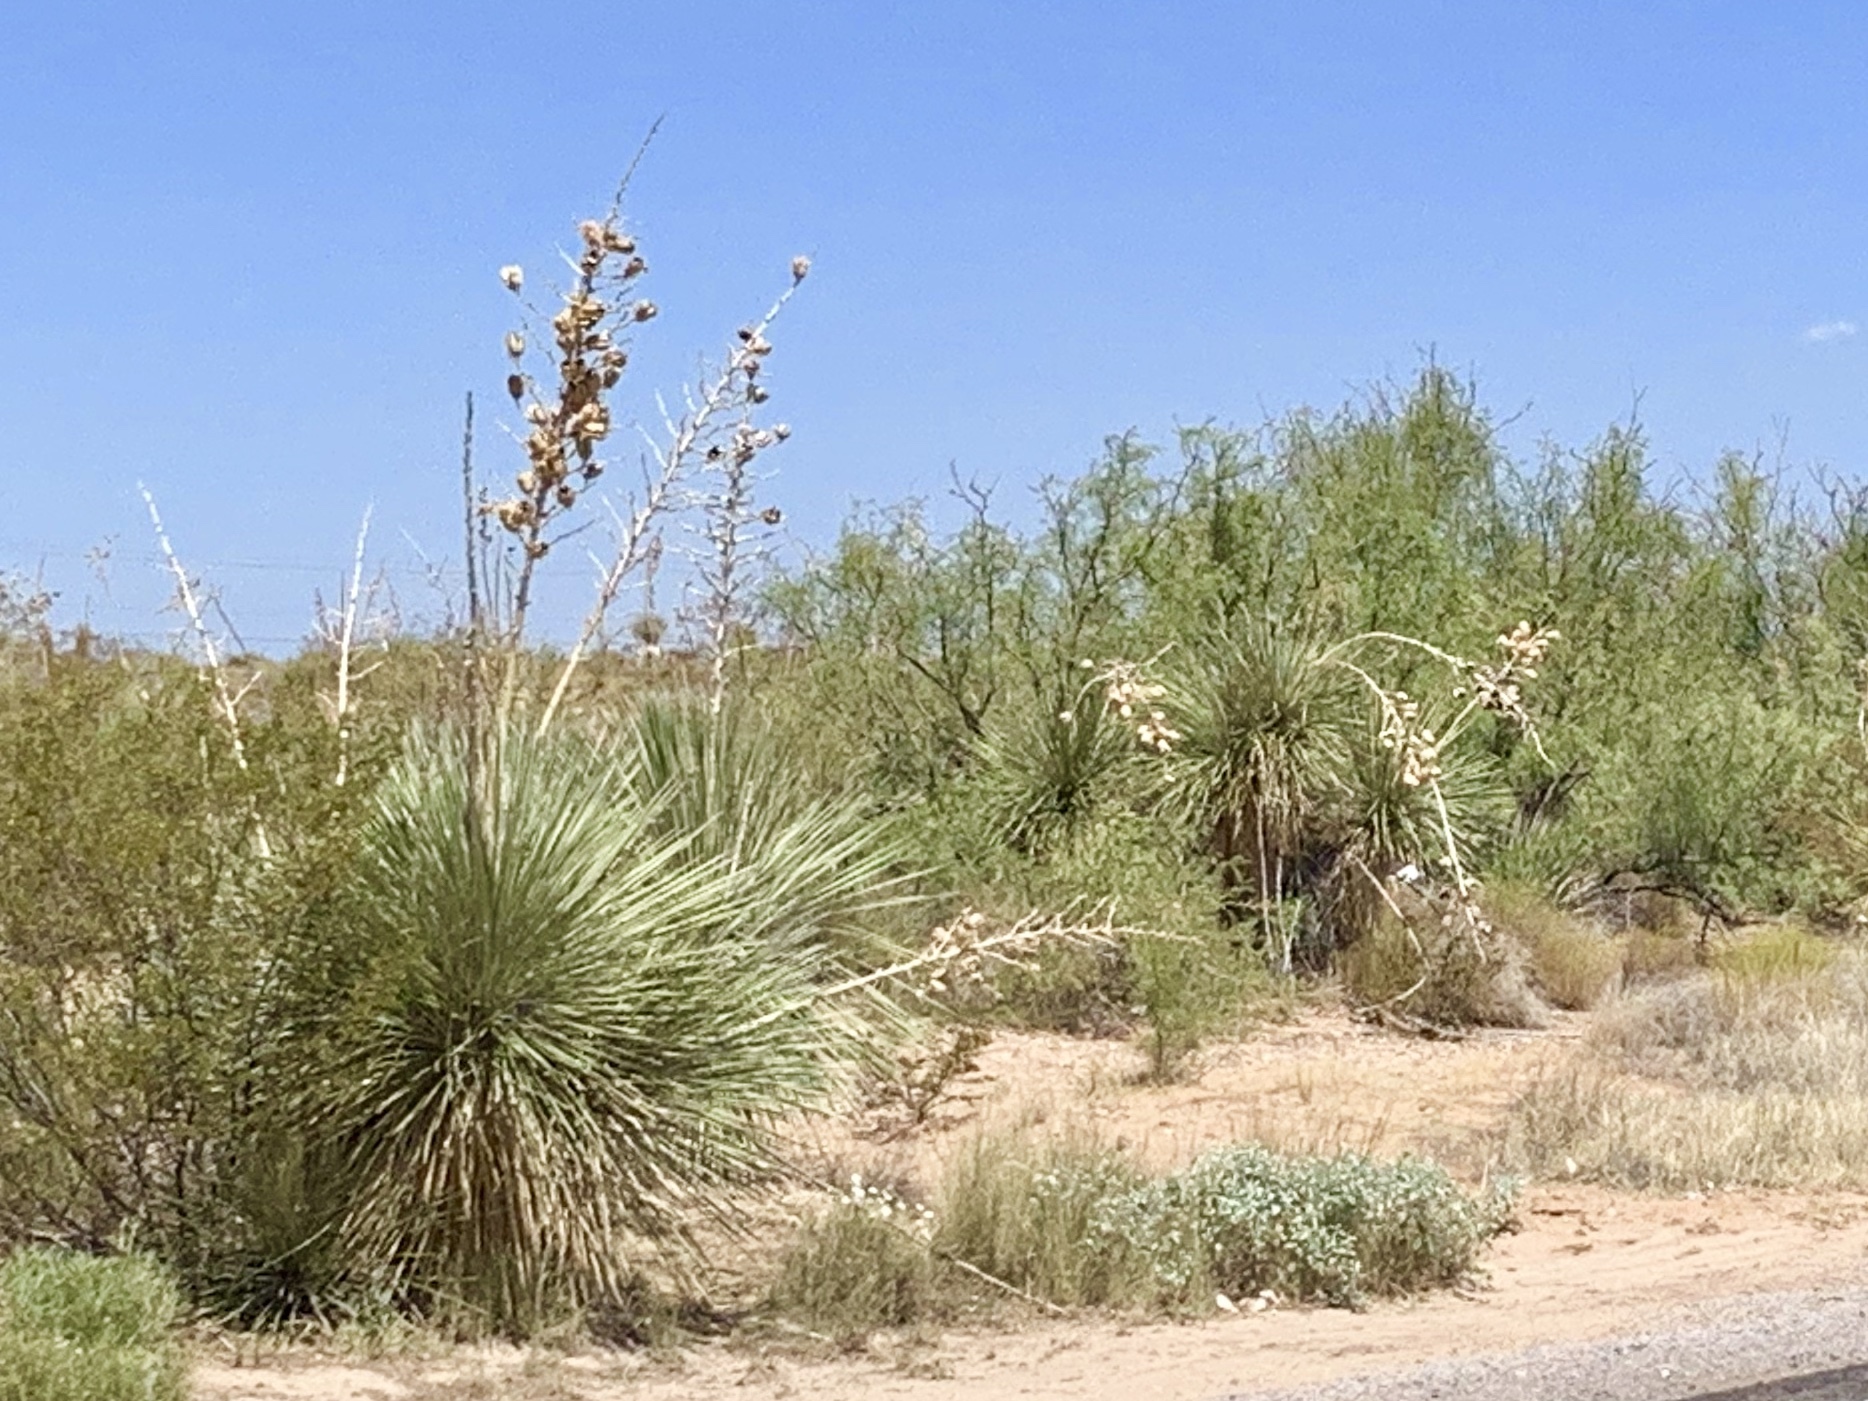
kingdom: Plantae
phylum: Tracheophyta
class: Liliopsida
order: Asparagales
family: Asparagaceae
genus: Yucca
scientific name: Yucca elata
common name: Palmella
